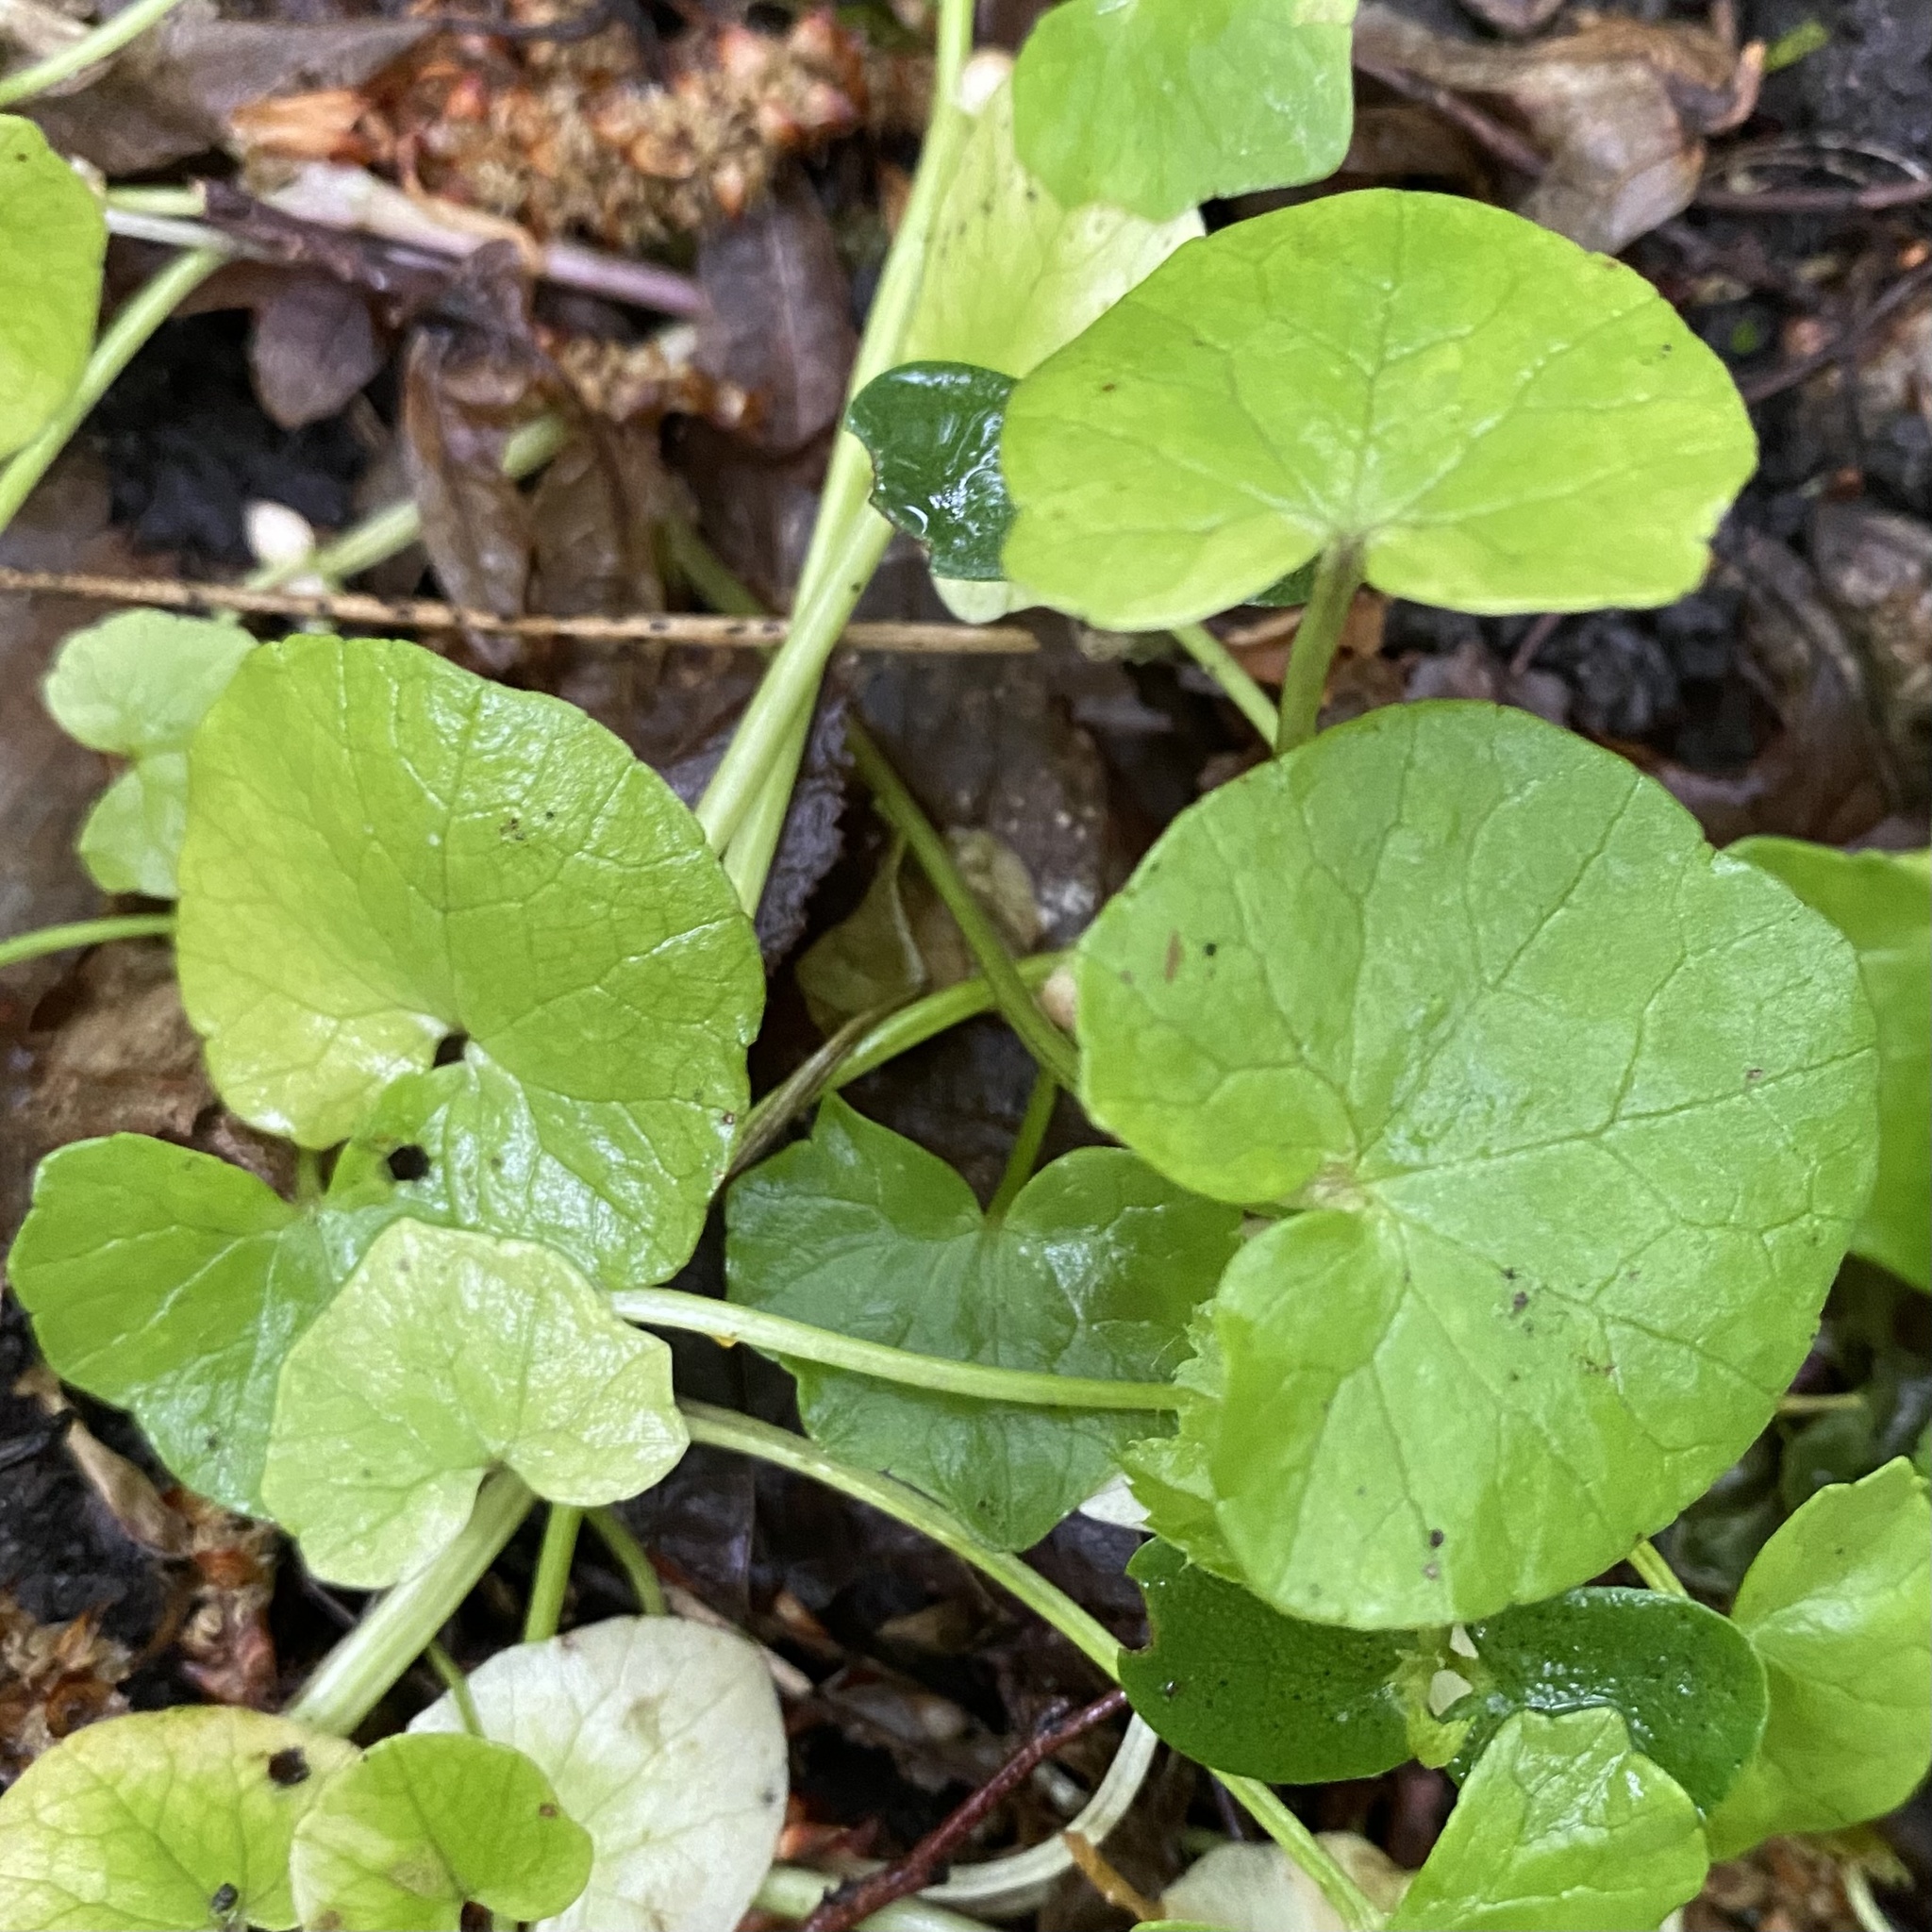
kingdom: Plantae
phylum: Tracheophyta
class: Magnoliopsida
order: Ranunculales
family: Ranunculaceae
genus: Ficaria
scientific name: Ficaria verna
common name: Lesser celandine
